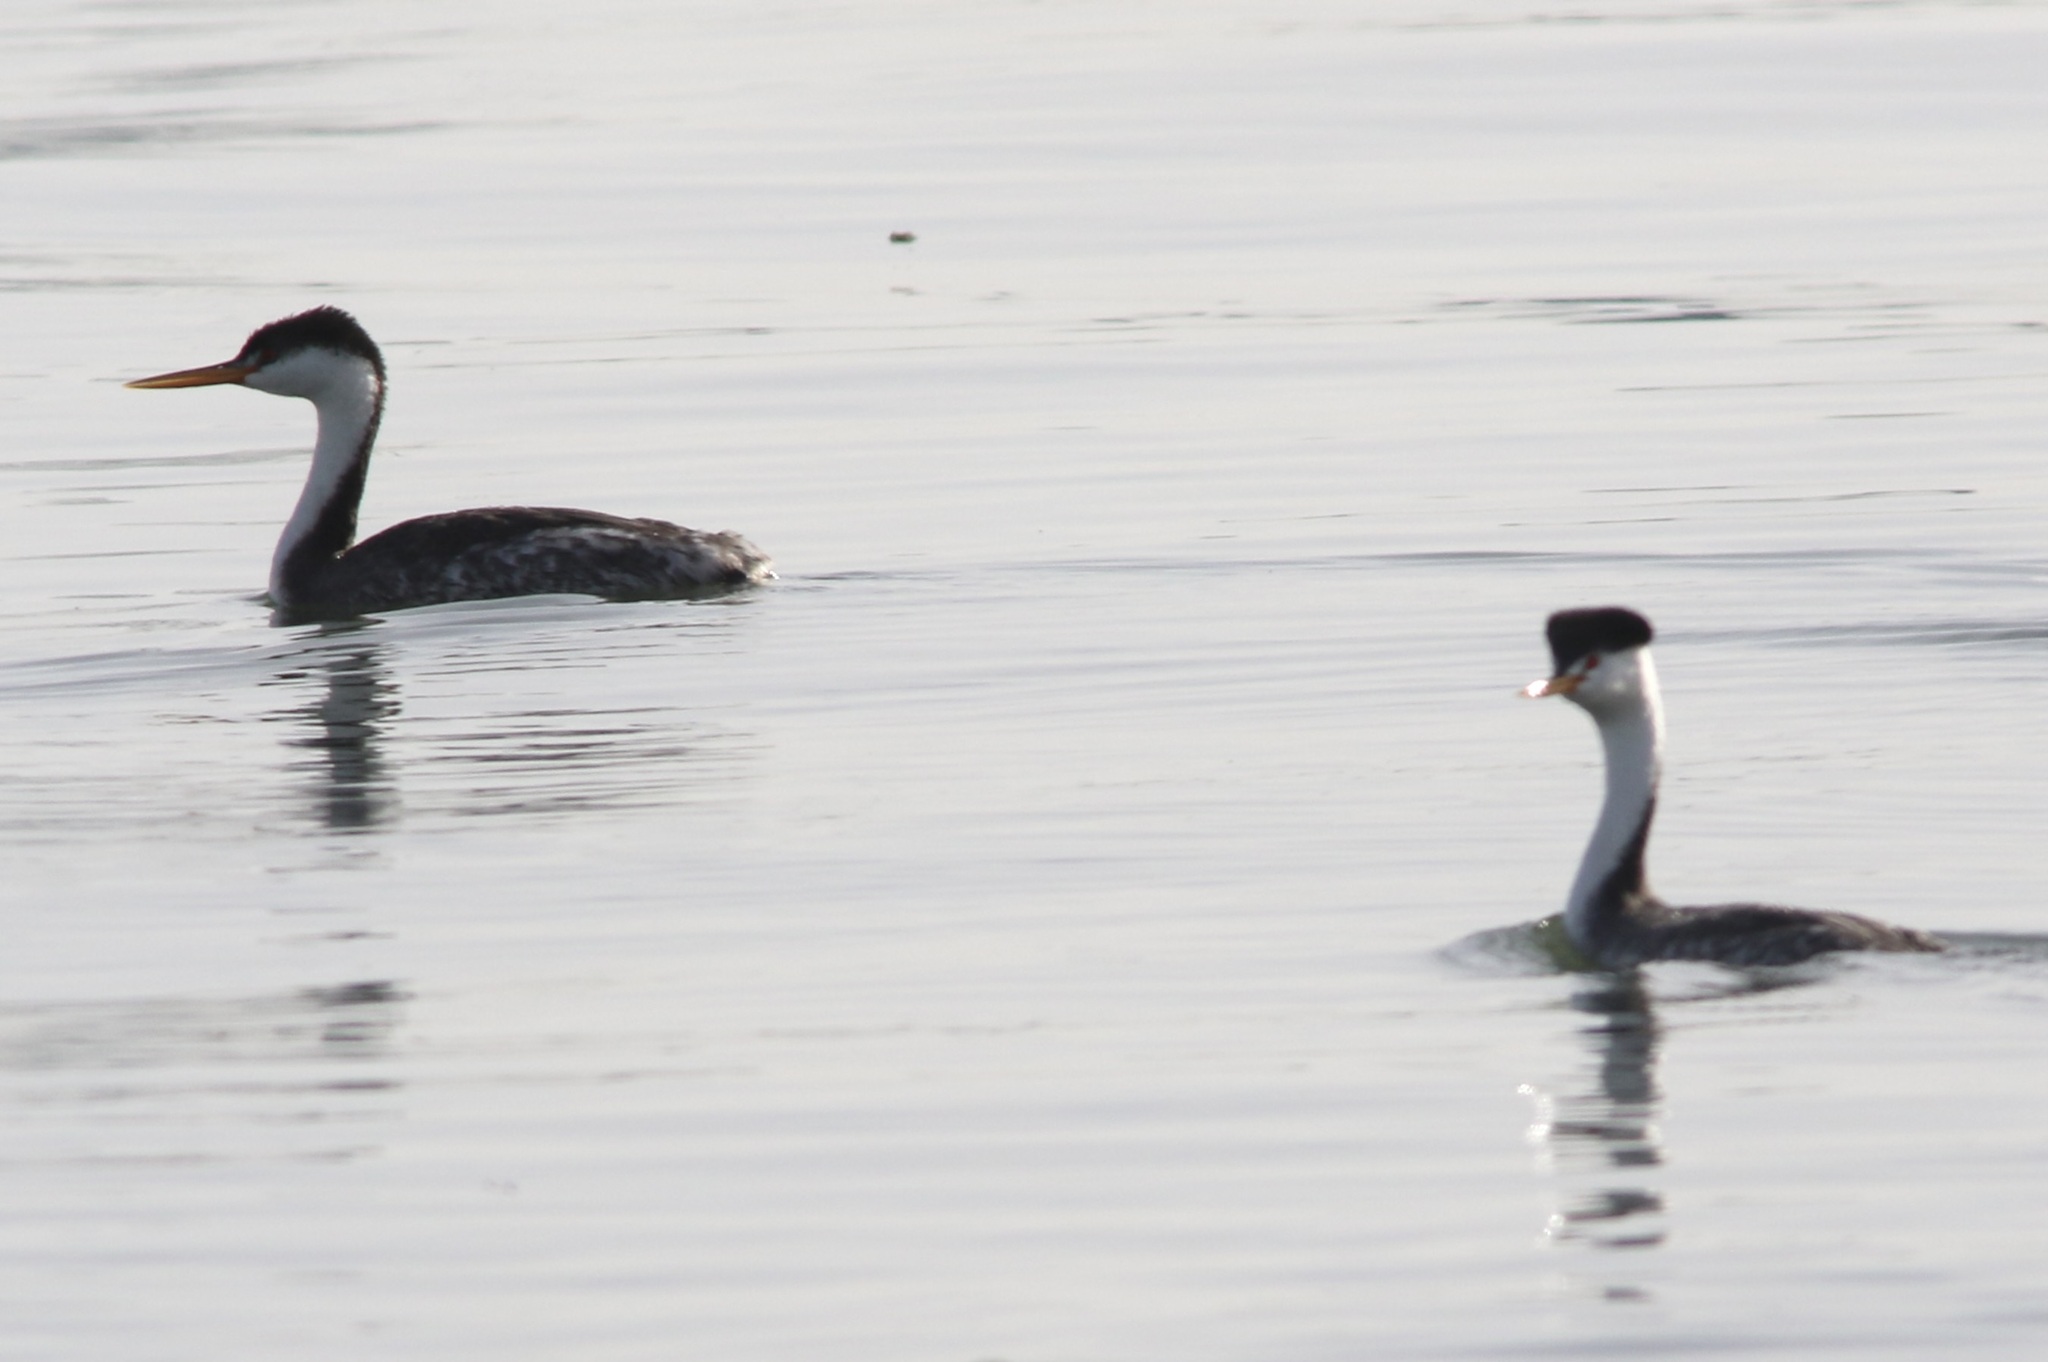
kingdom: Animalia
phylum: Chordata
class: Aves
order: Podicipediformes
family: Podicipedidae
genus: Aechmophorus
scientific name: Aechmophorus clarkii
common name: Clark's grebe
